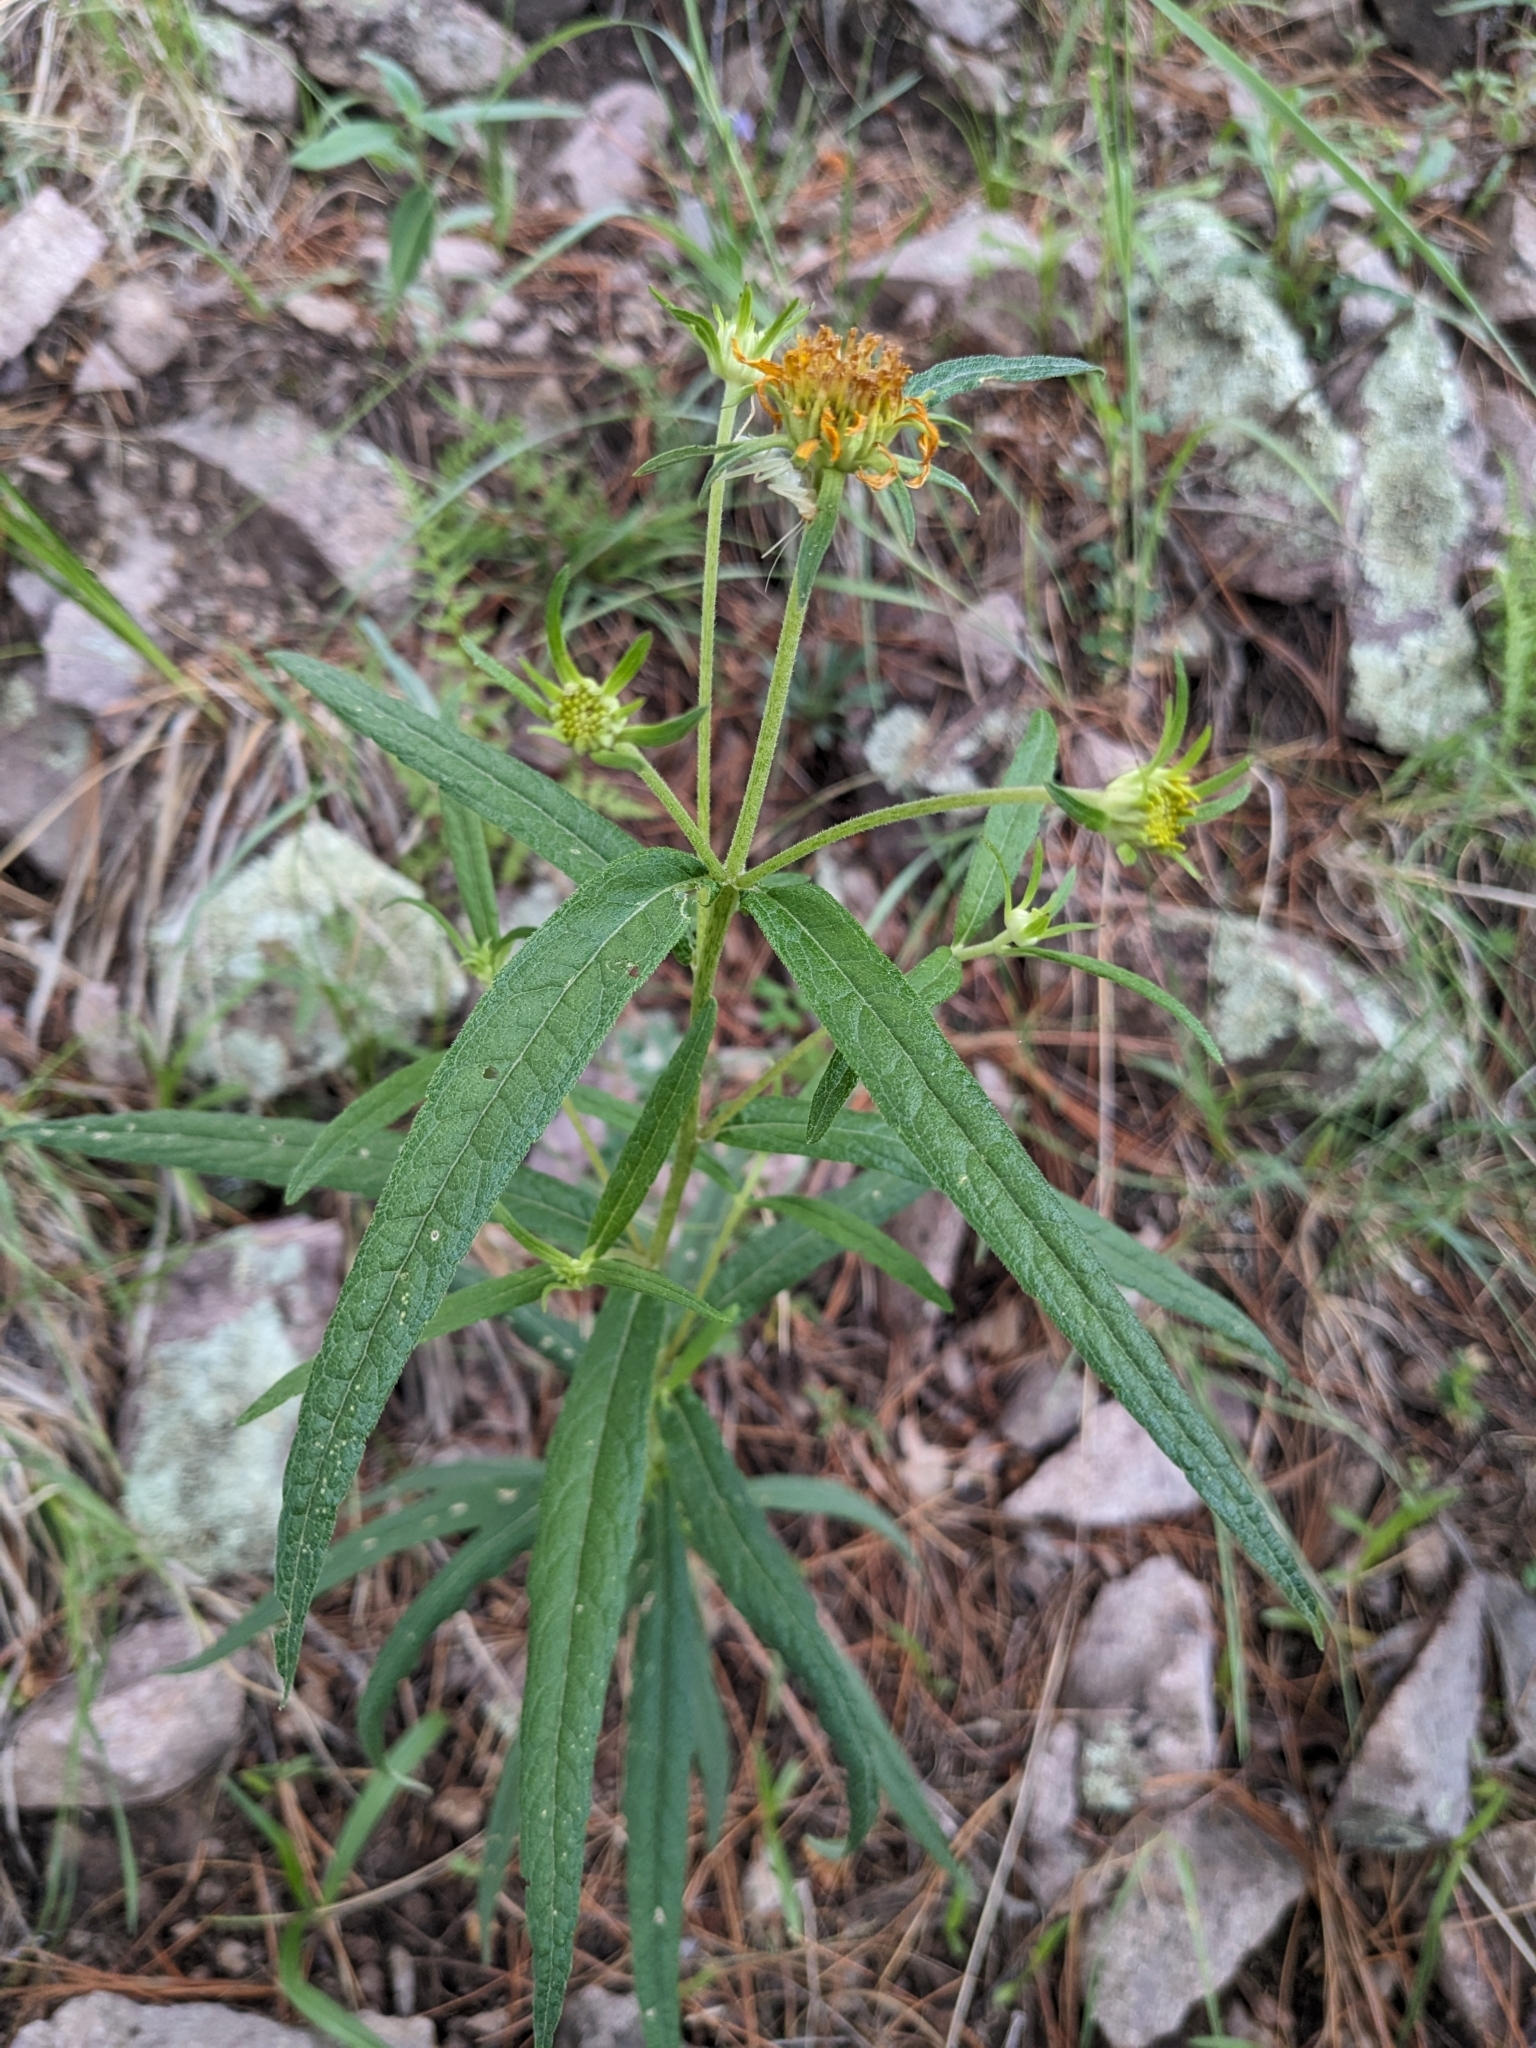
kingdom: Plantae
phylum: Tracheophyta
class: Magnoliopsida
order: Asterales
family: Asteraceae
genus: Verbesina
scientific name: Verbesina longifolia
